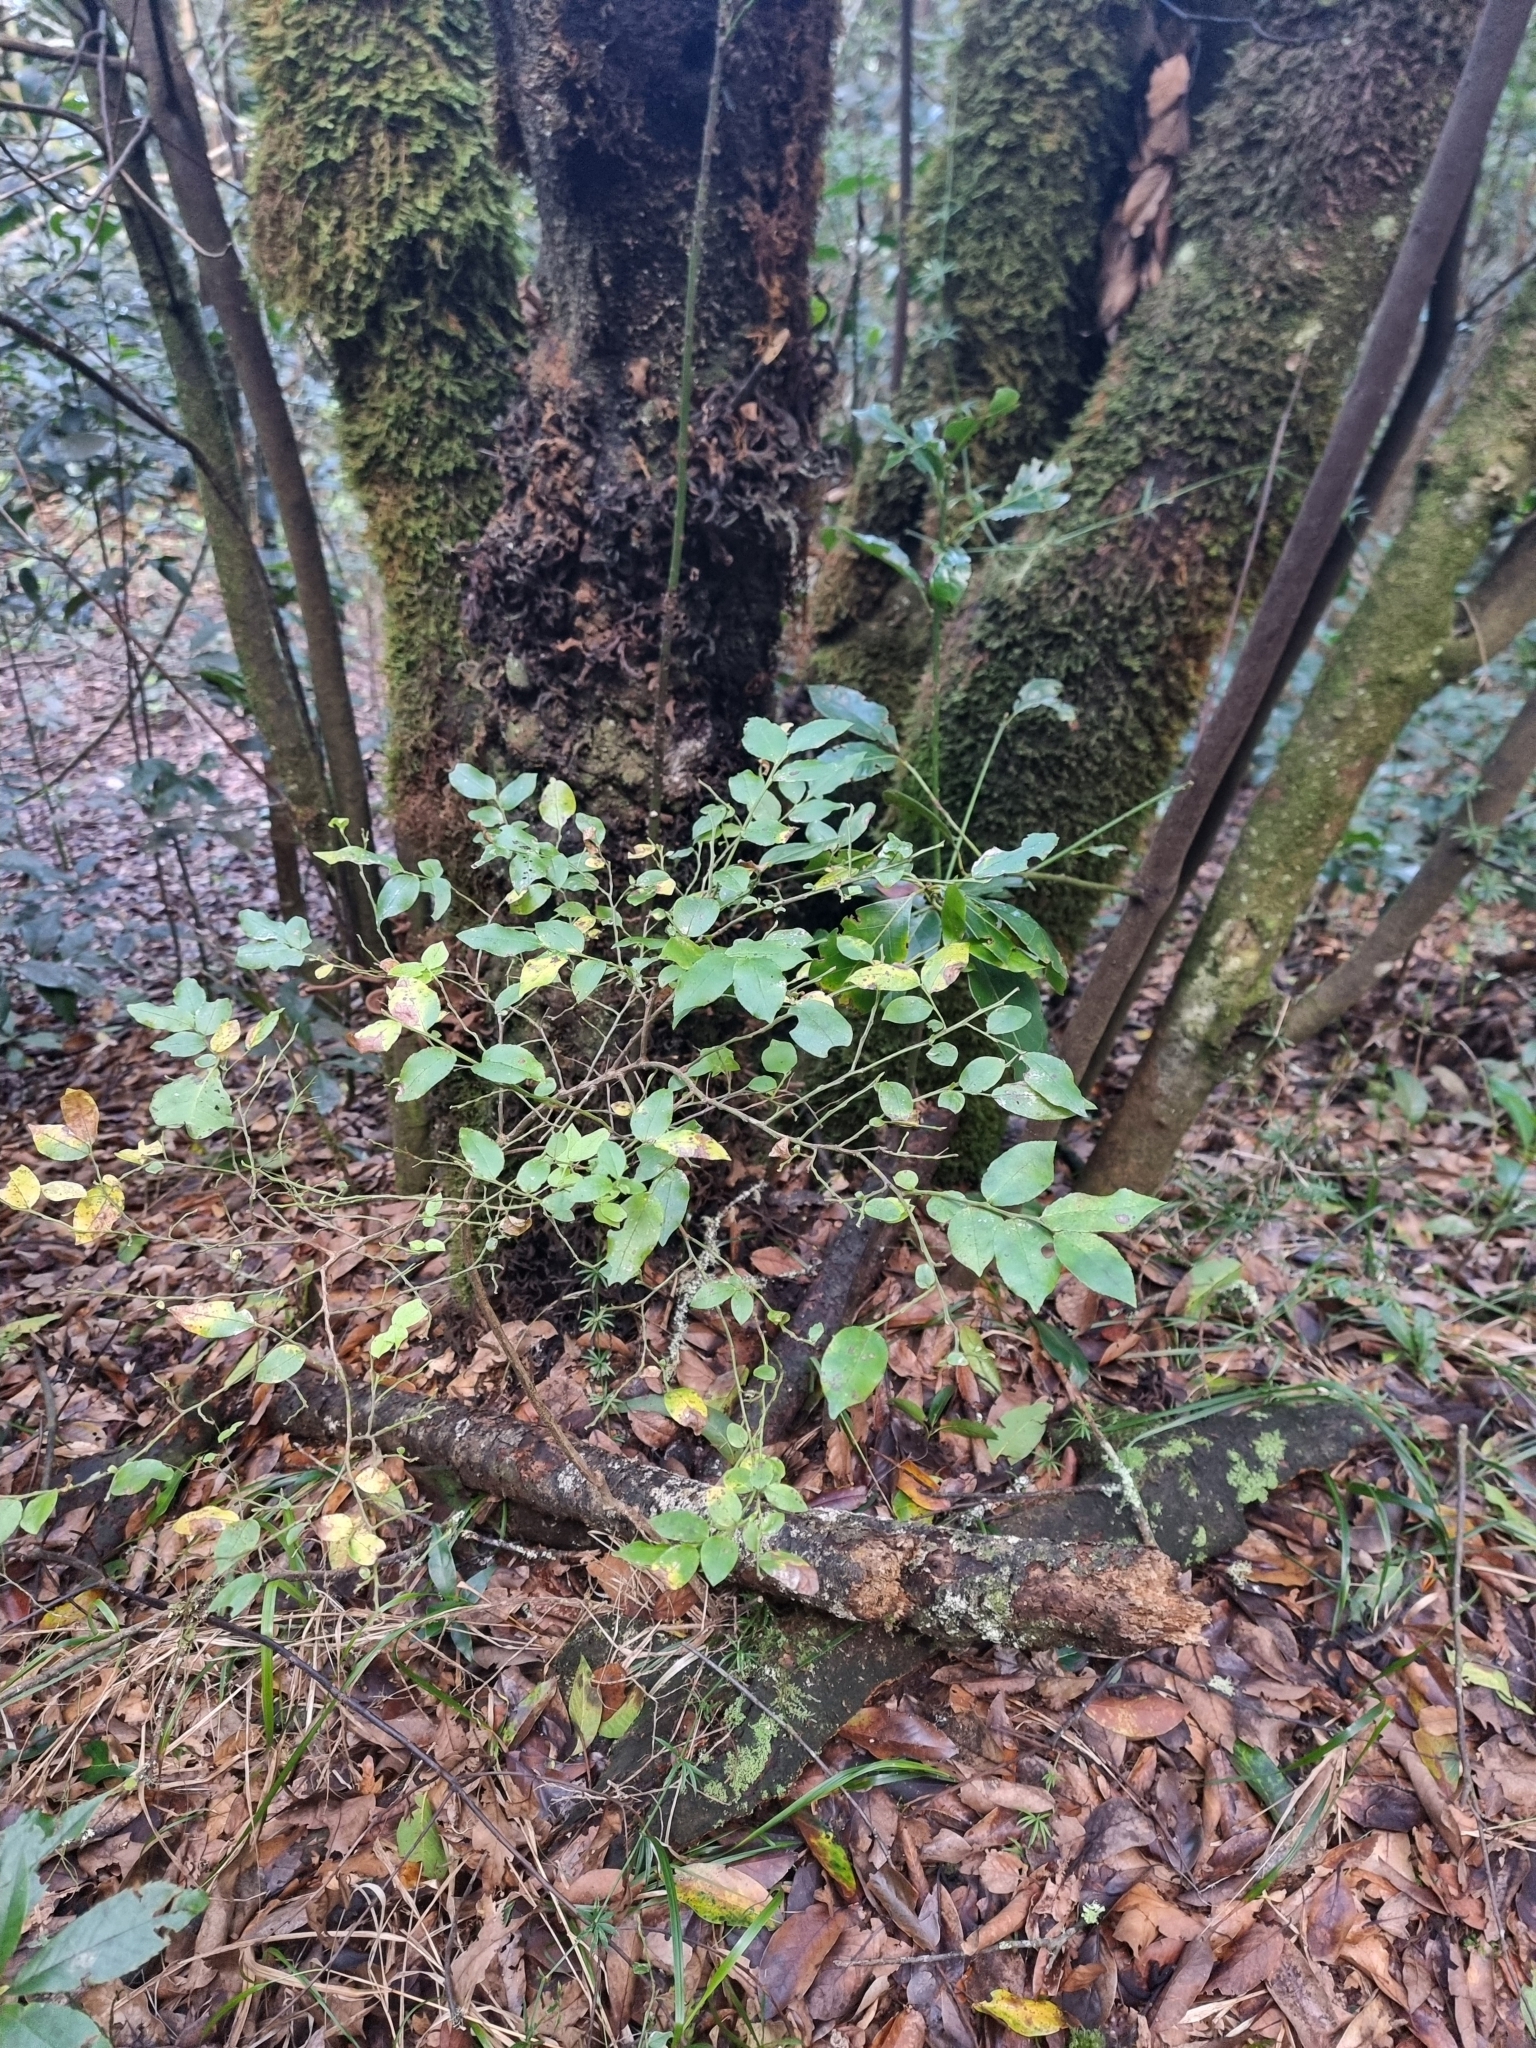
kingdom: Plantae
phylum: Tracheophyta
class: Magnoliopsida
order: Ericales
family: Ericaceae
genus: Vaccinium
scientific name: Vaccinium padifolium
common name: Madeiran blueberry
